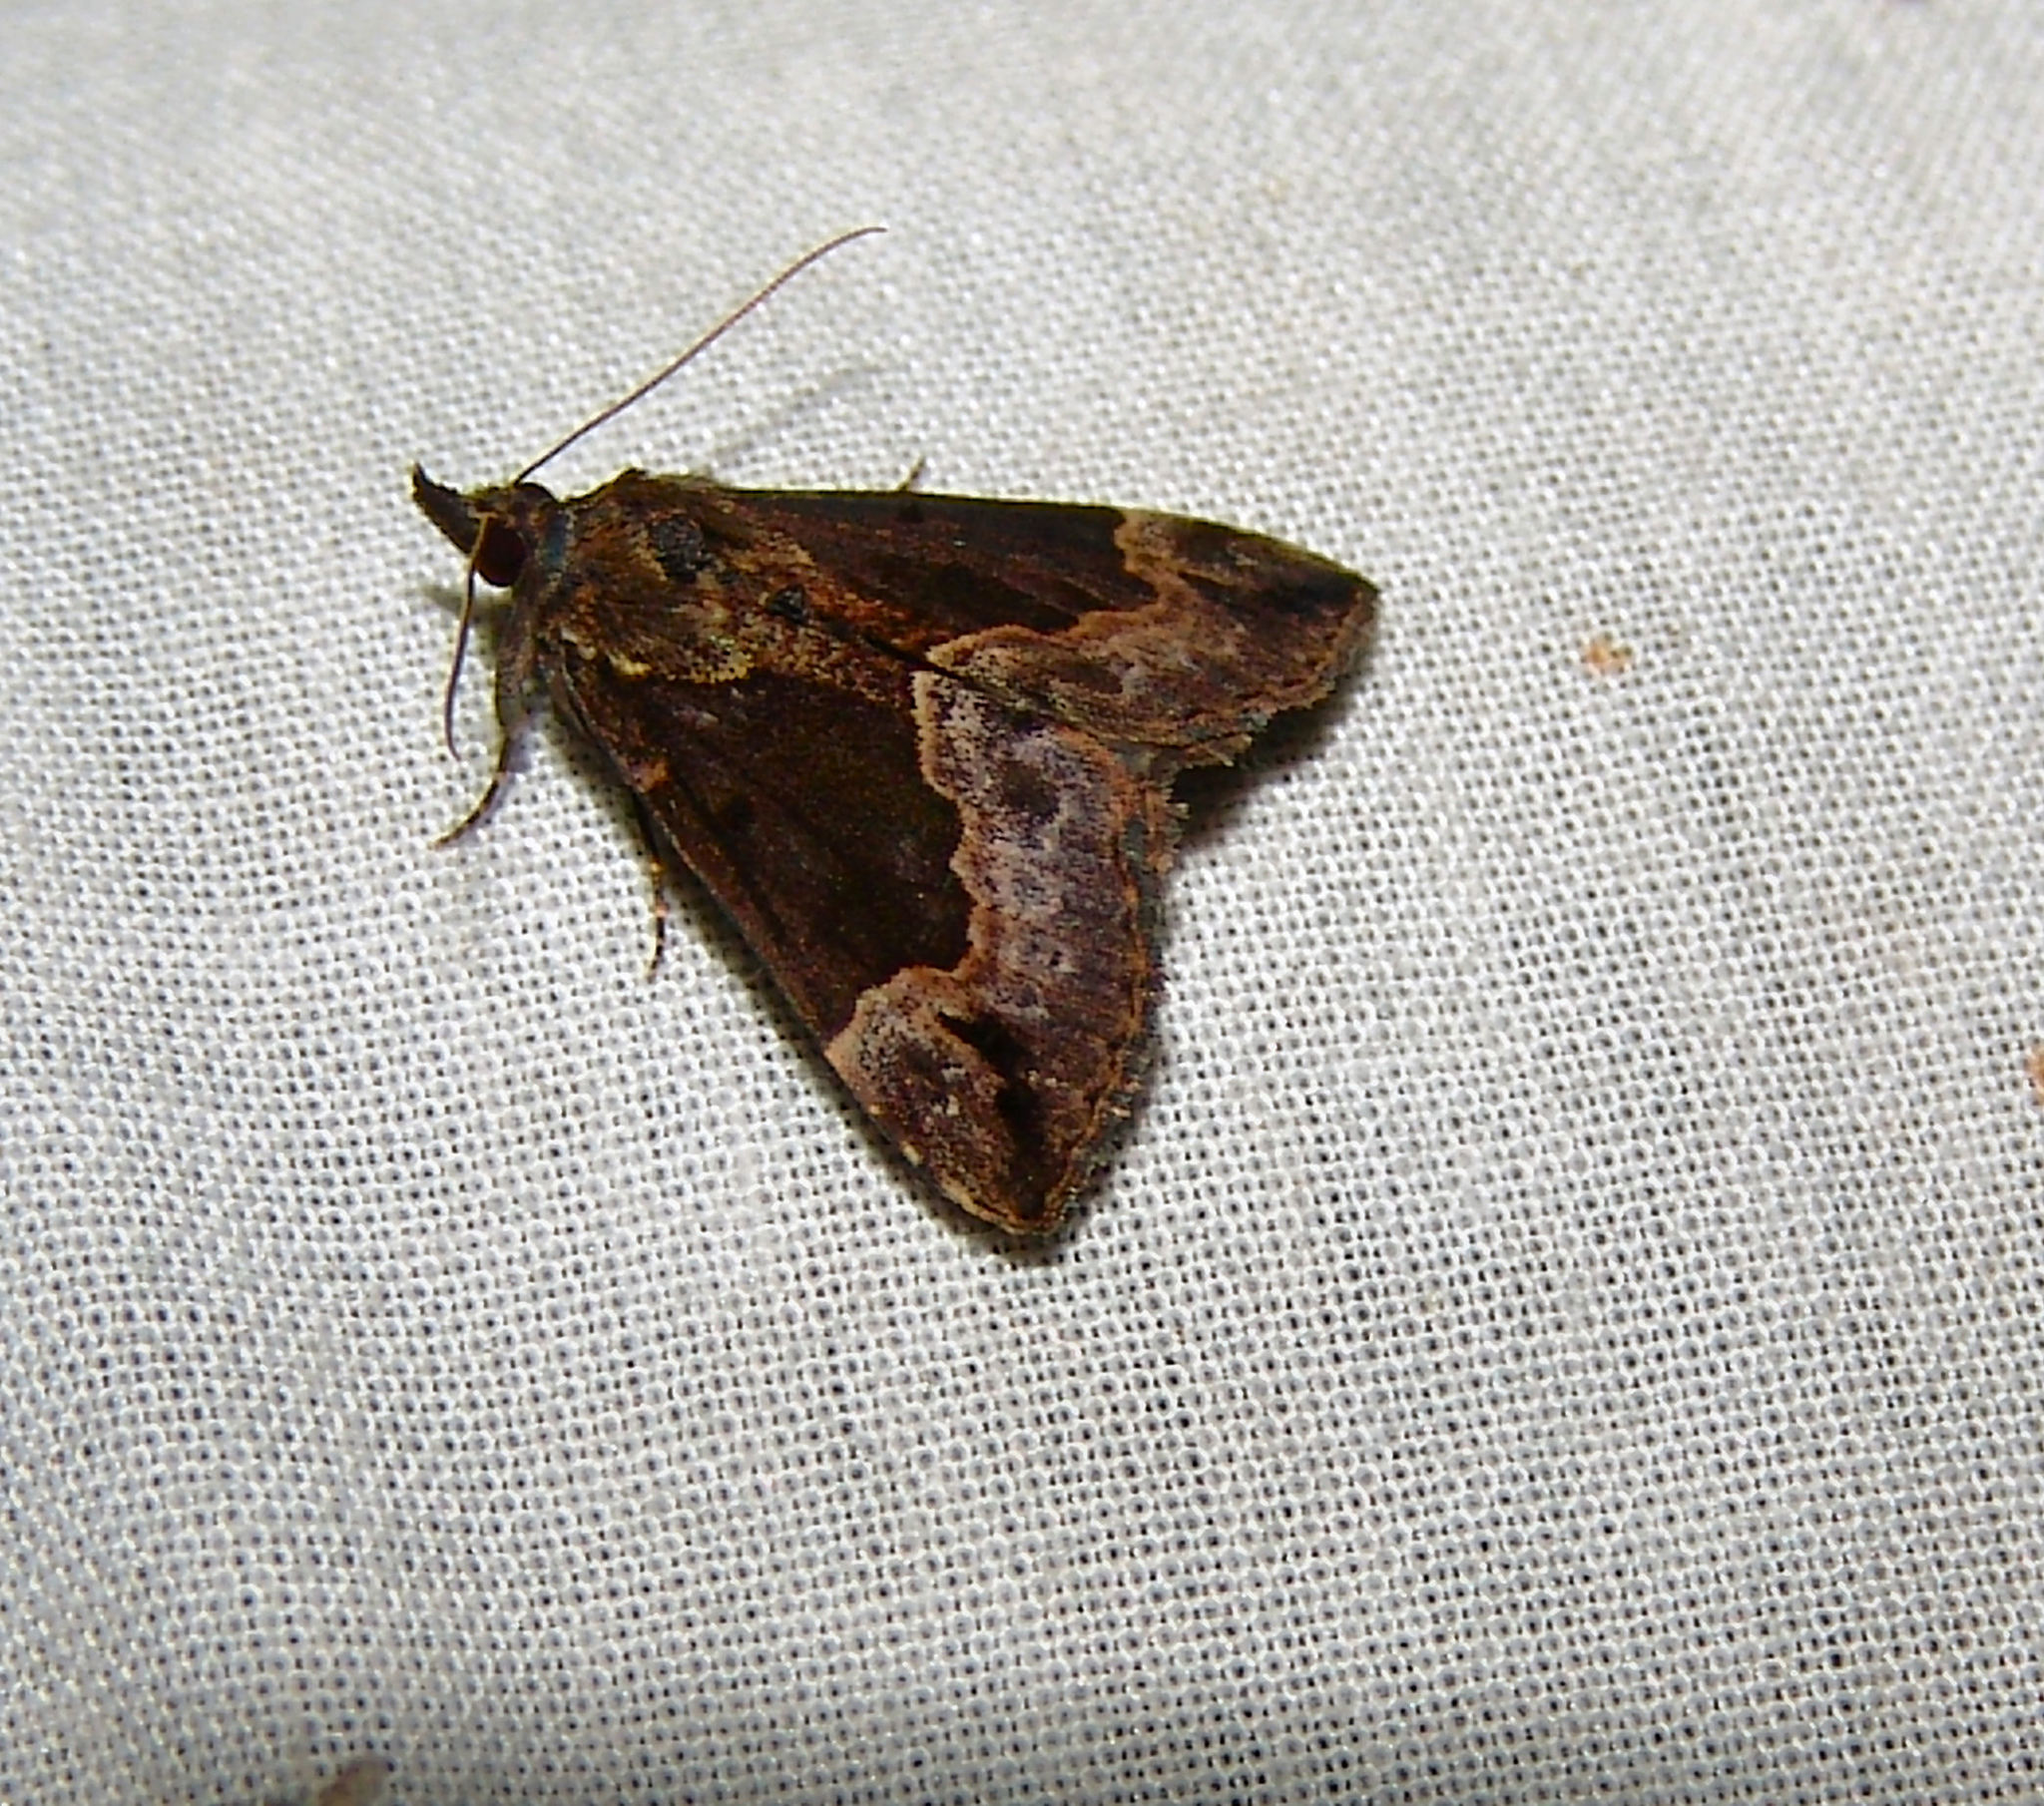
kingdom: Animalia
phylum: Arthropoda
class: Insecta
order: Lepidoptera
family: Erebidae
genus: Hypena
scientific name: Hypena baltimoralis
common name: Baltimore snout
